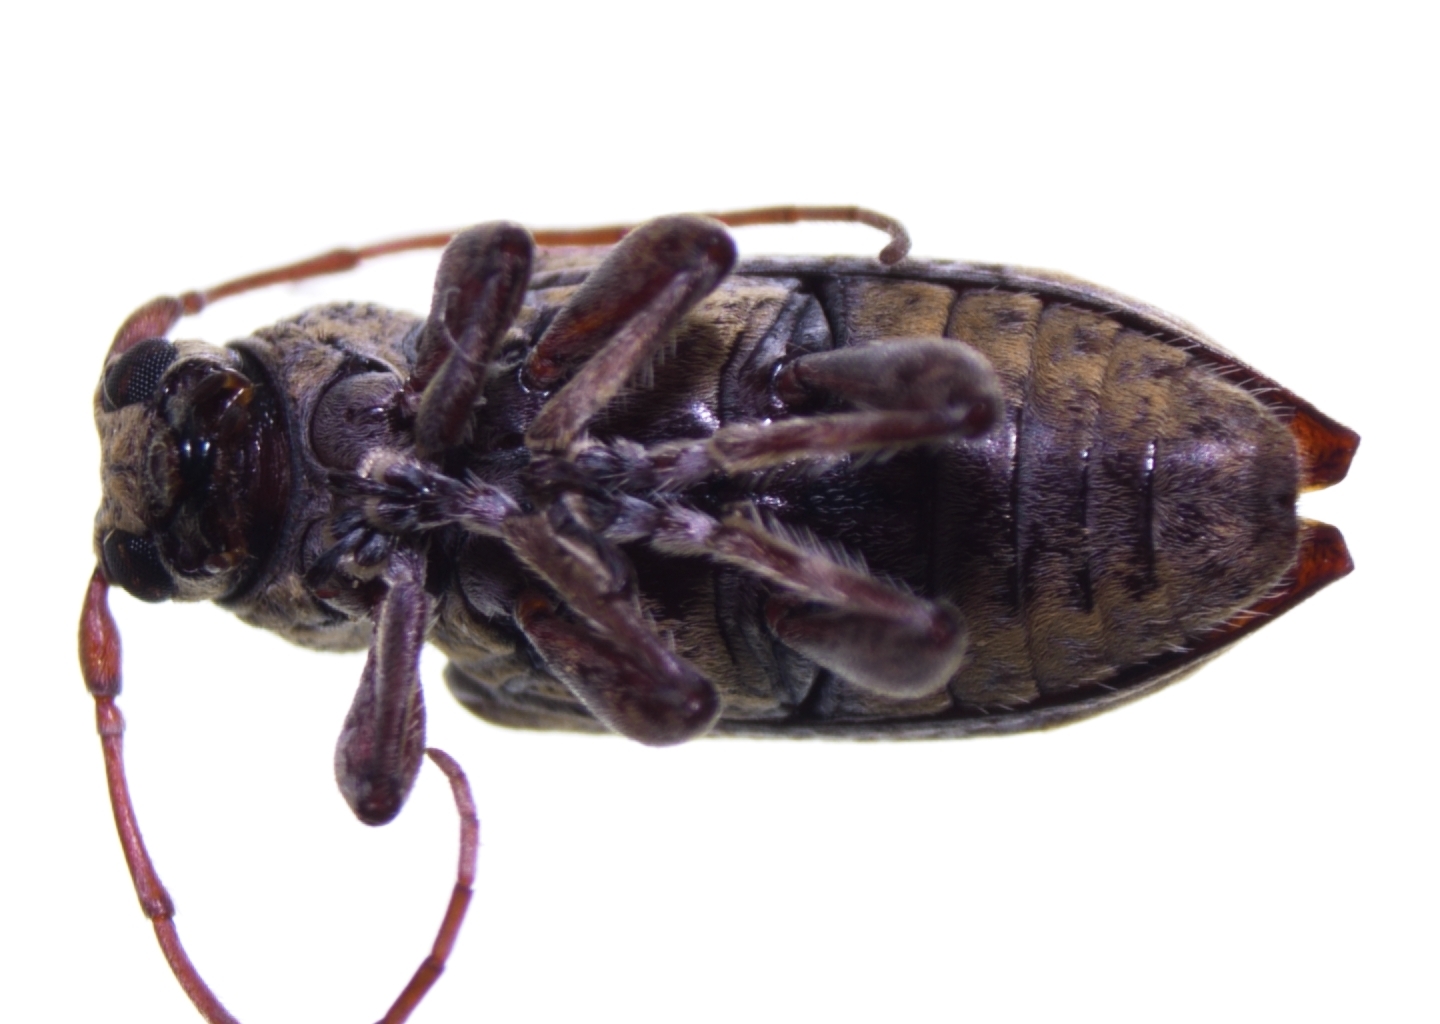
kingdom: Animalia
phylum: Arthropoda
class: Insecta
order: Coleoptera
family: Cerambycidae
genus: Oopsis
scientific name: Oopsis nutator
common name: Oopsis long-horned beetle
